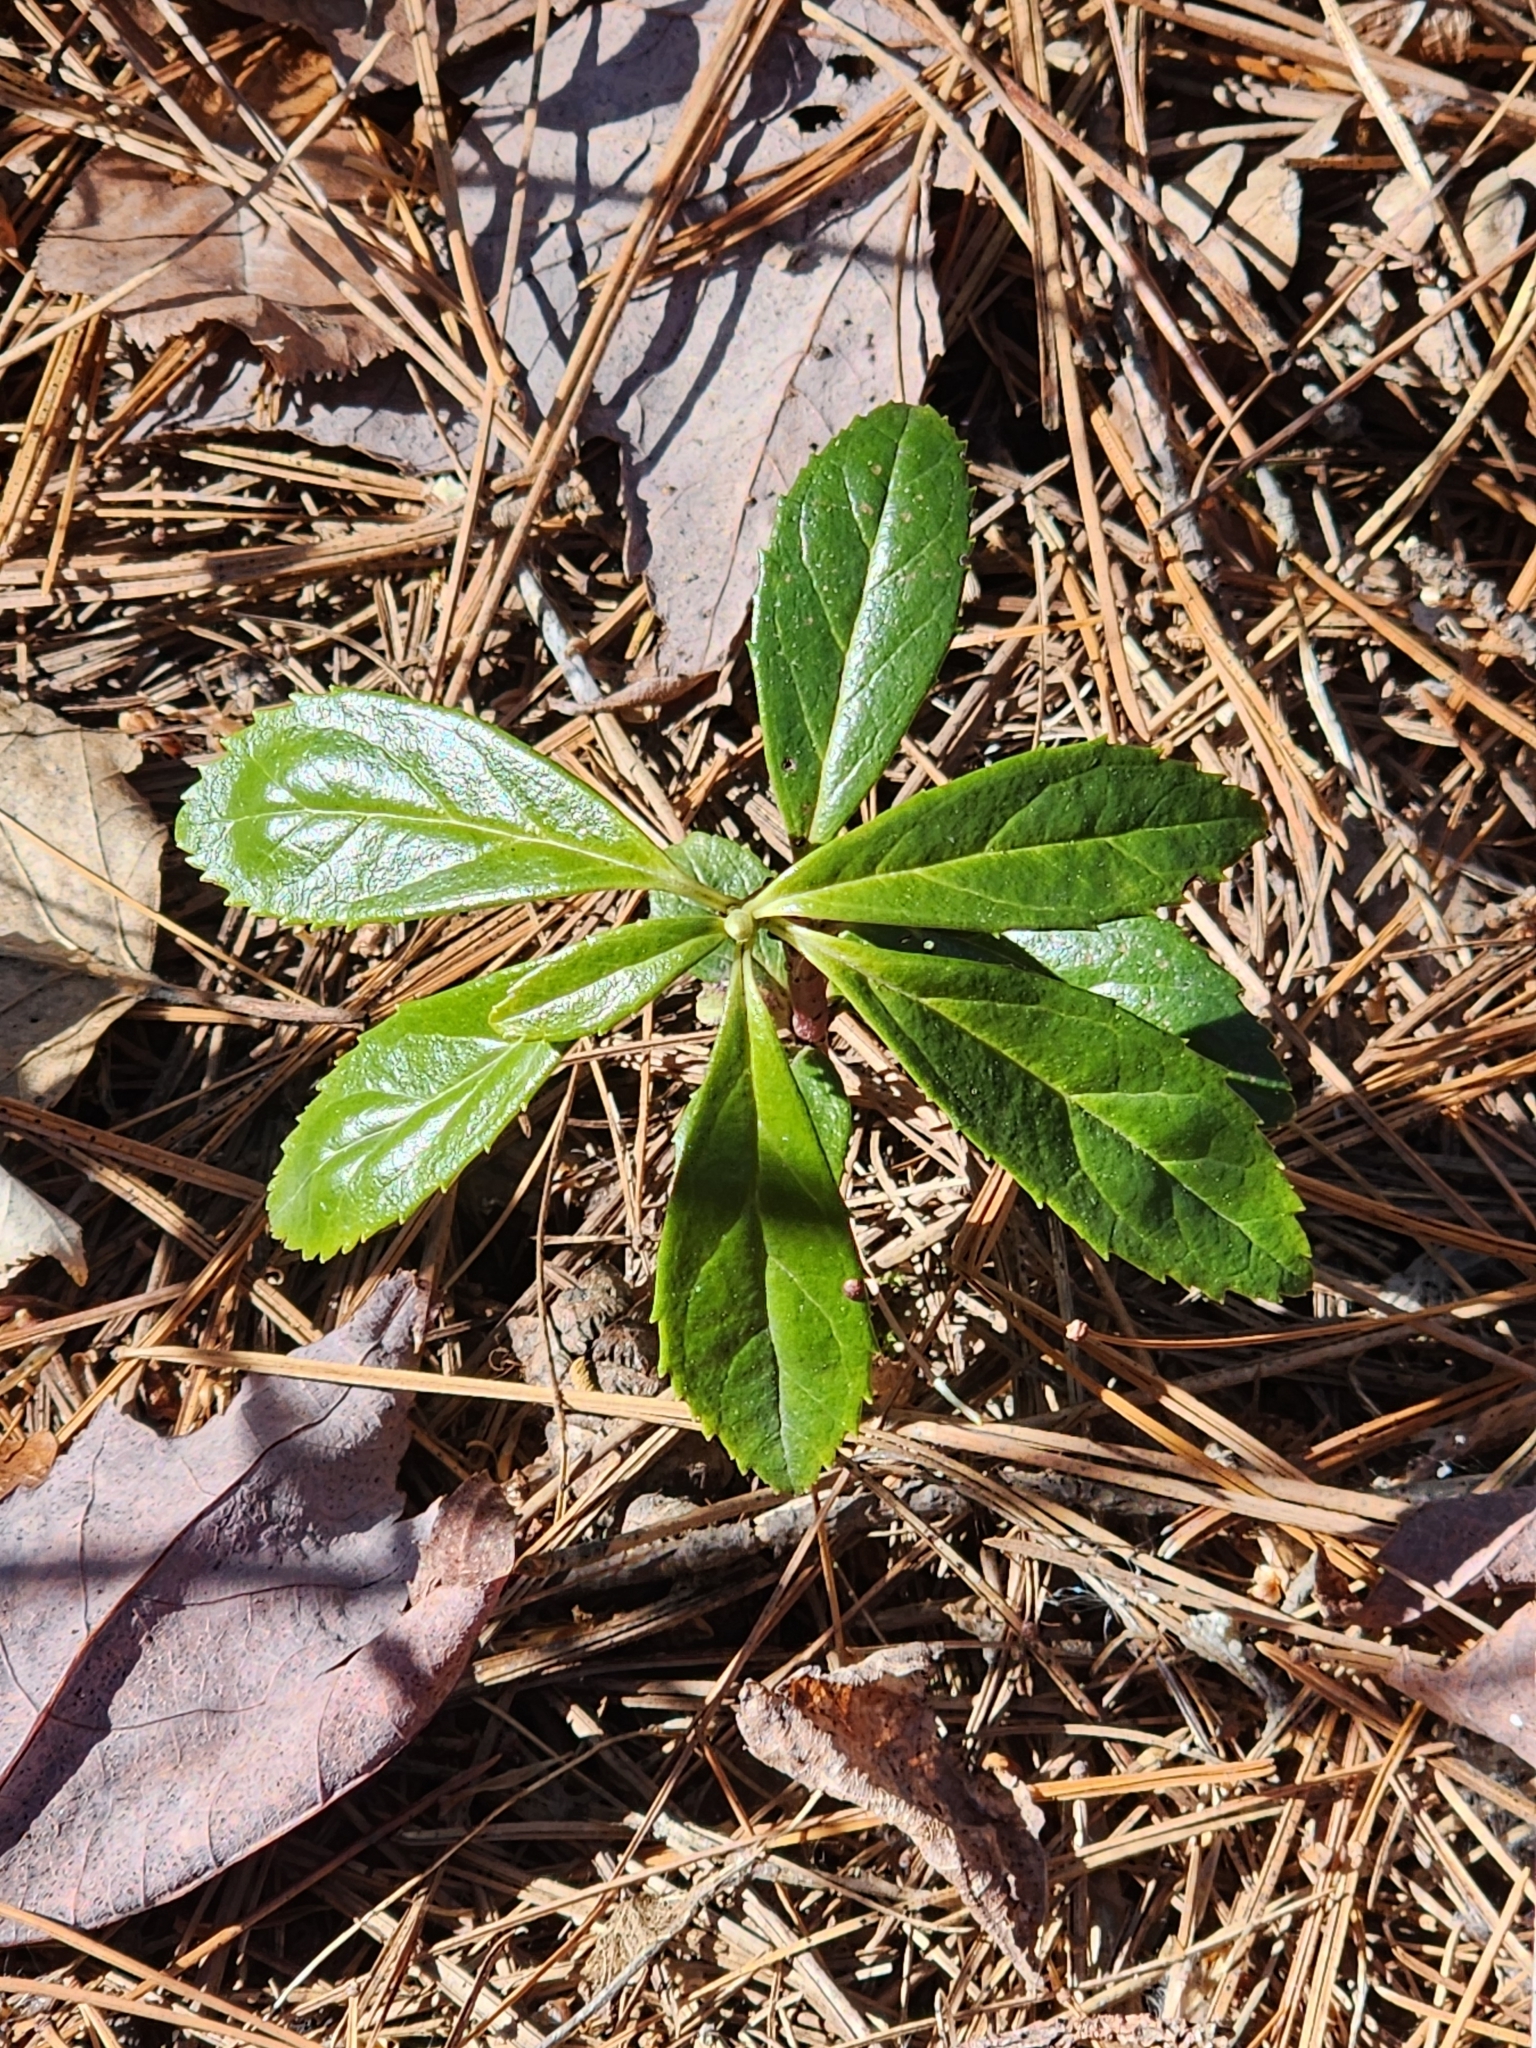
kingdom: Plantae
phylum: Tracheophyta
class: Magnoliopsida
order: Ericales
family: Ericaceae
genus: Chimaphila
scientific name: Chimaphila umbellata
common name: Pipsissewa
